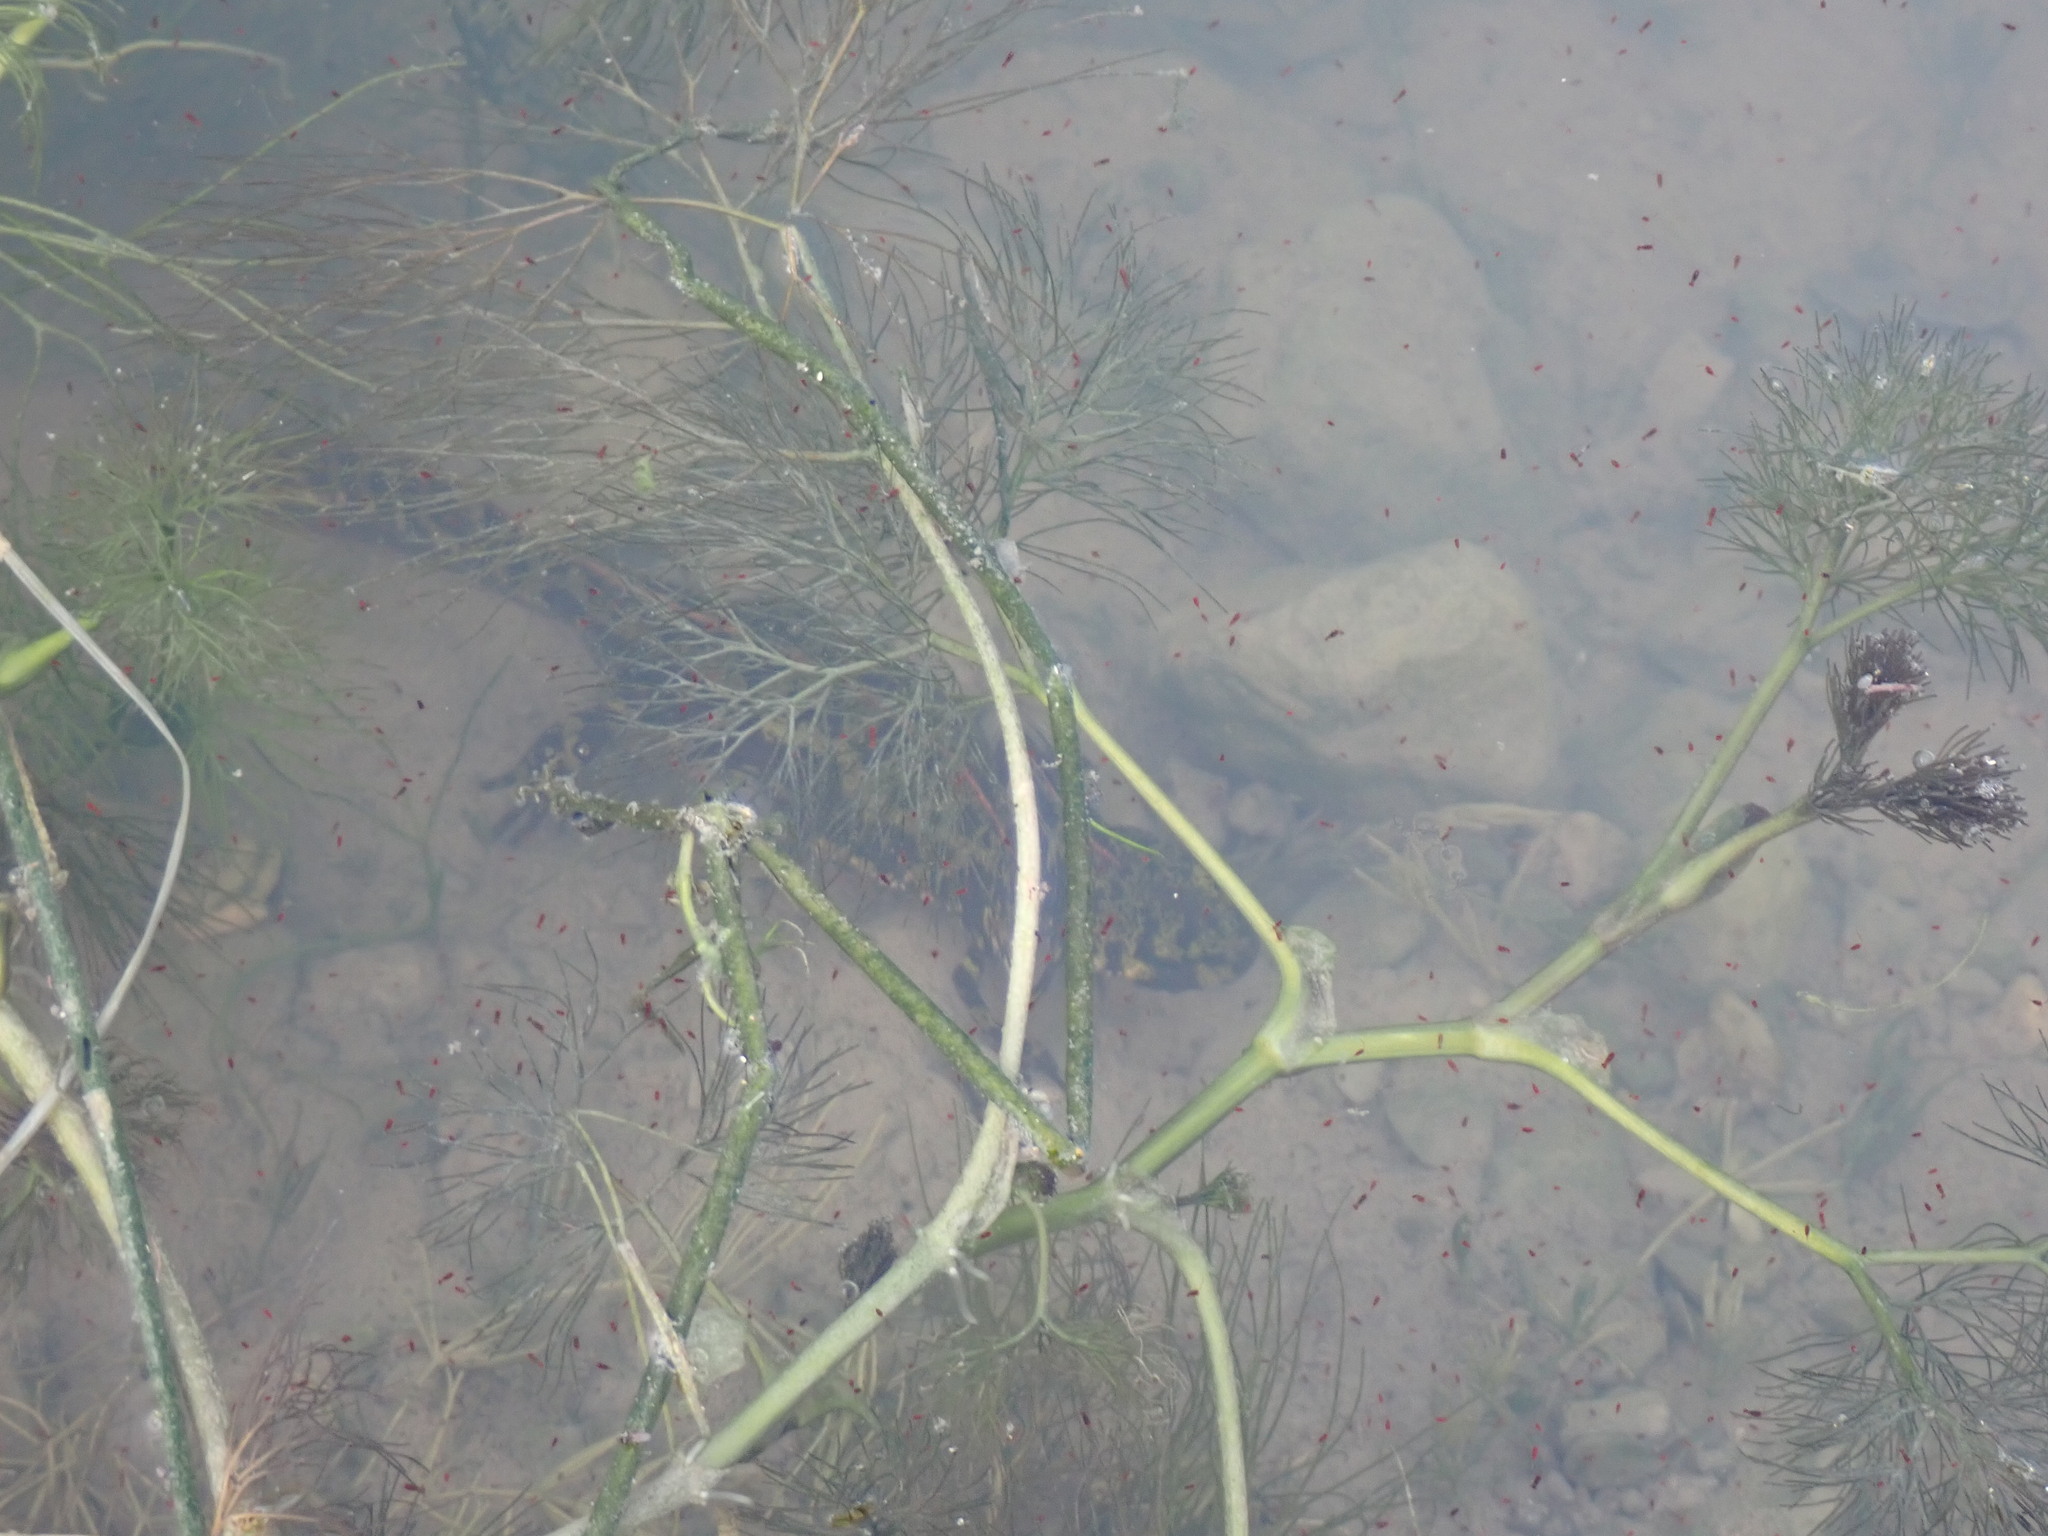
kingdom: Animalia
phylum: Chordata
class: Amphibia
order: Caudata
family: Salamandridae
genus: Triturus
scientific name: Triturus marmoratus
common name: Marbled newt
